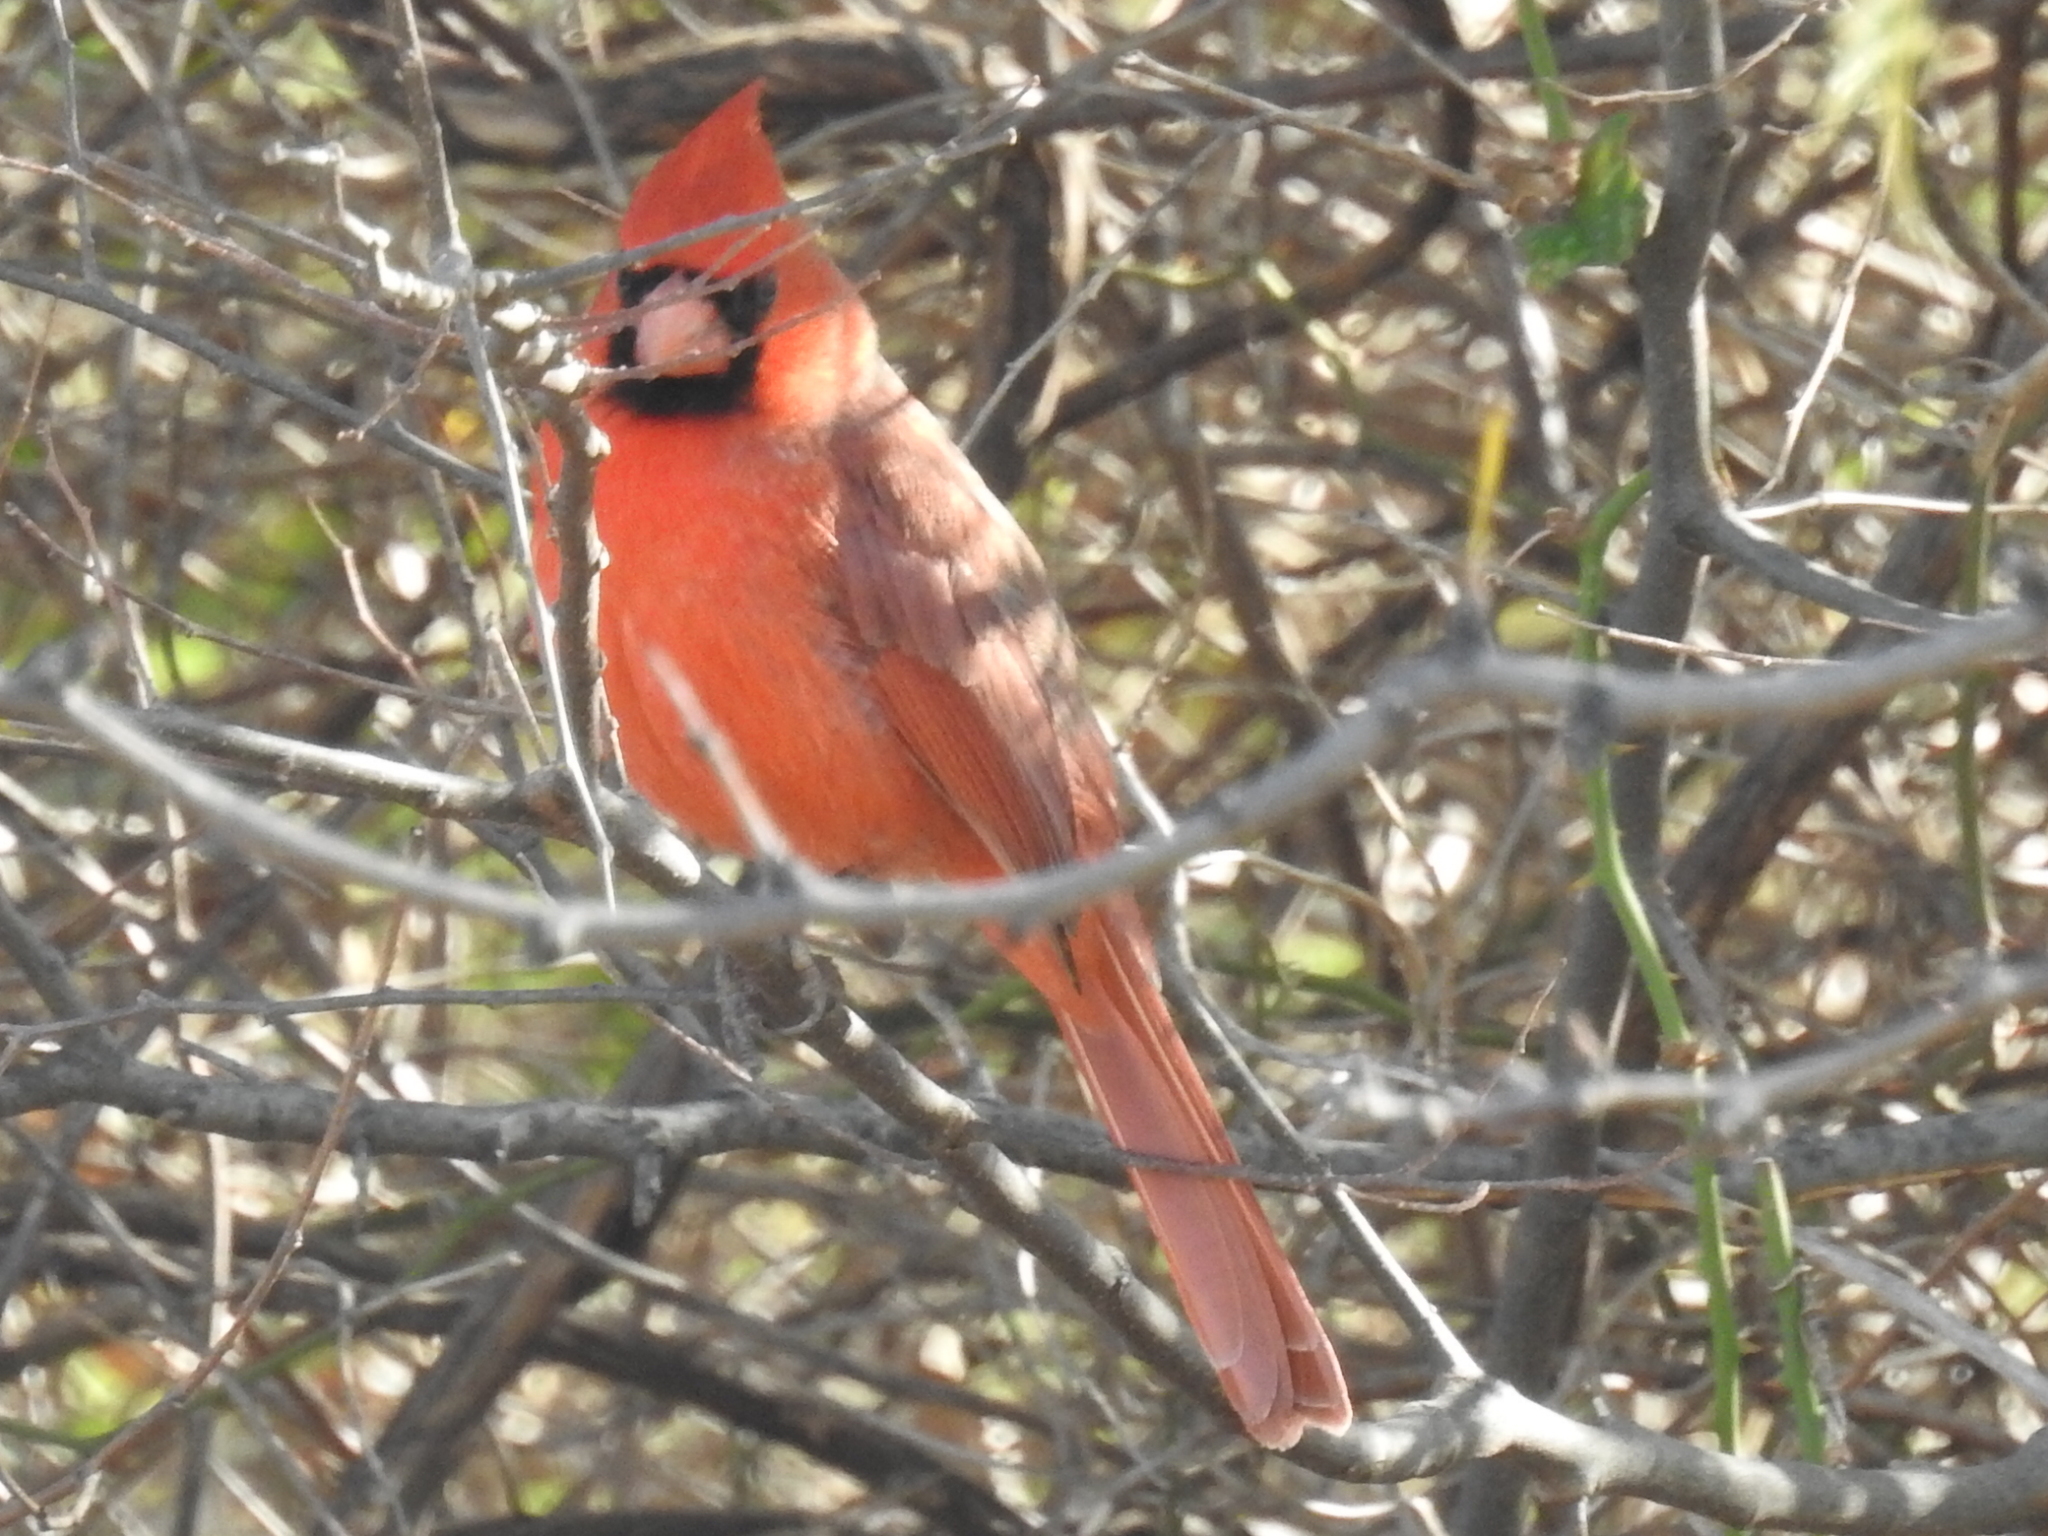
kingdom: Animalia
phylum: Chordata
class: Aves
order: Passeriformes
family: Cardinalidae
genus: Cardinalis
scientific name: Cardinalis cardinalis
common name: Northern cardinal
